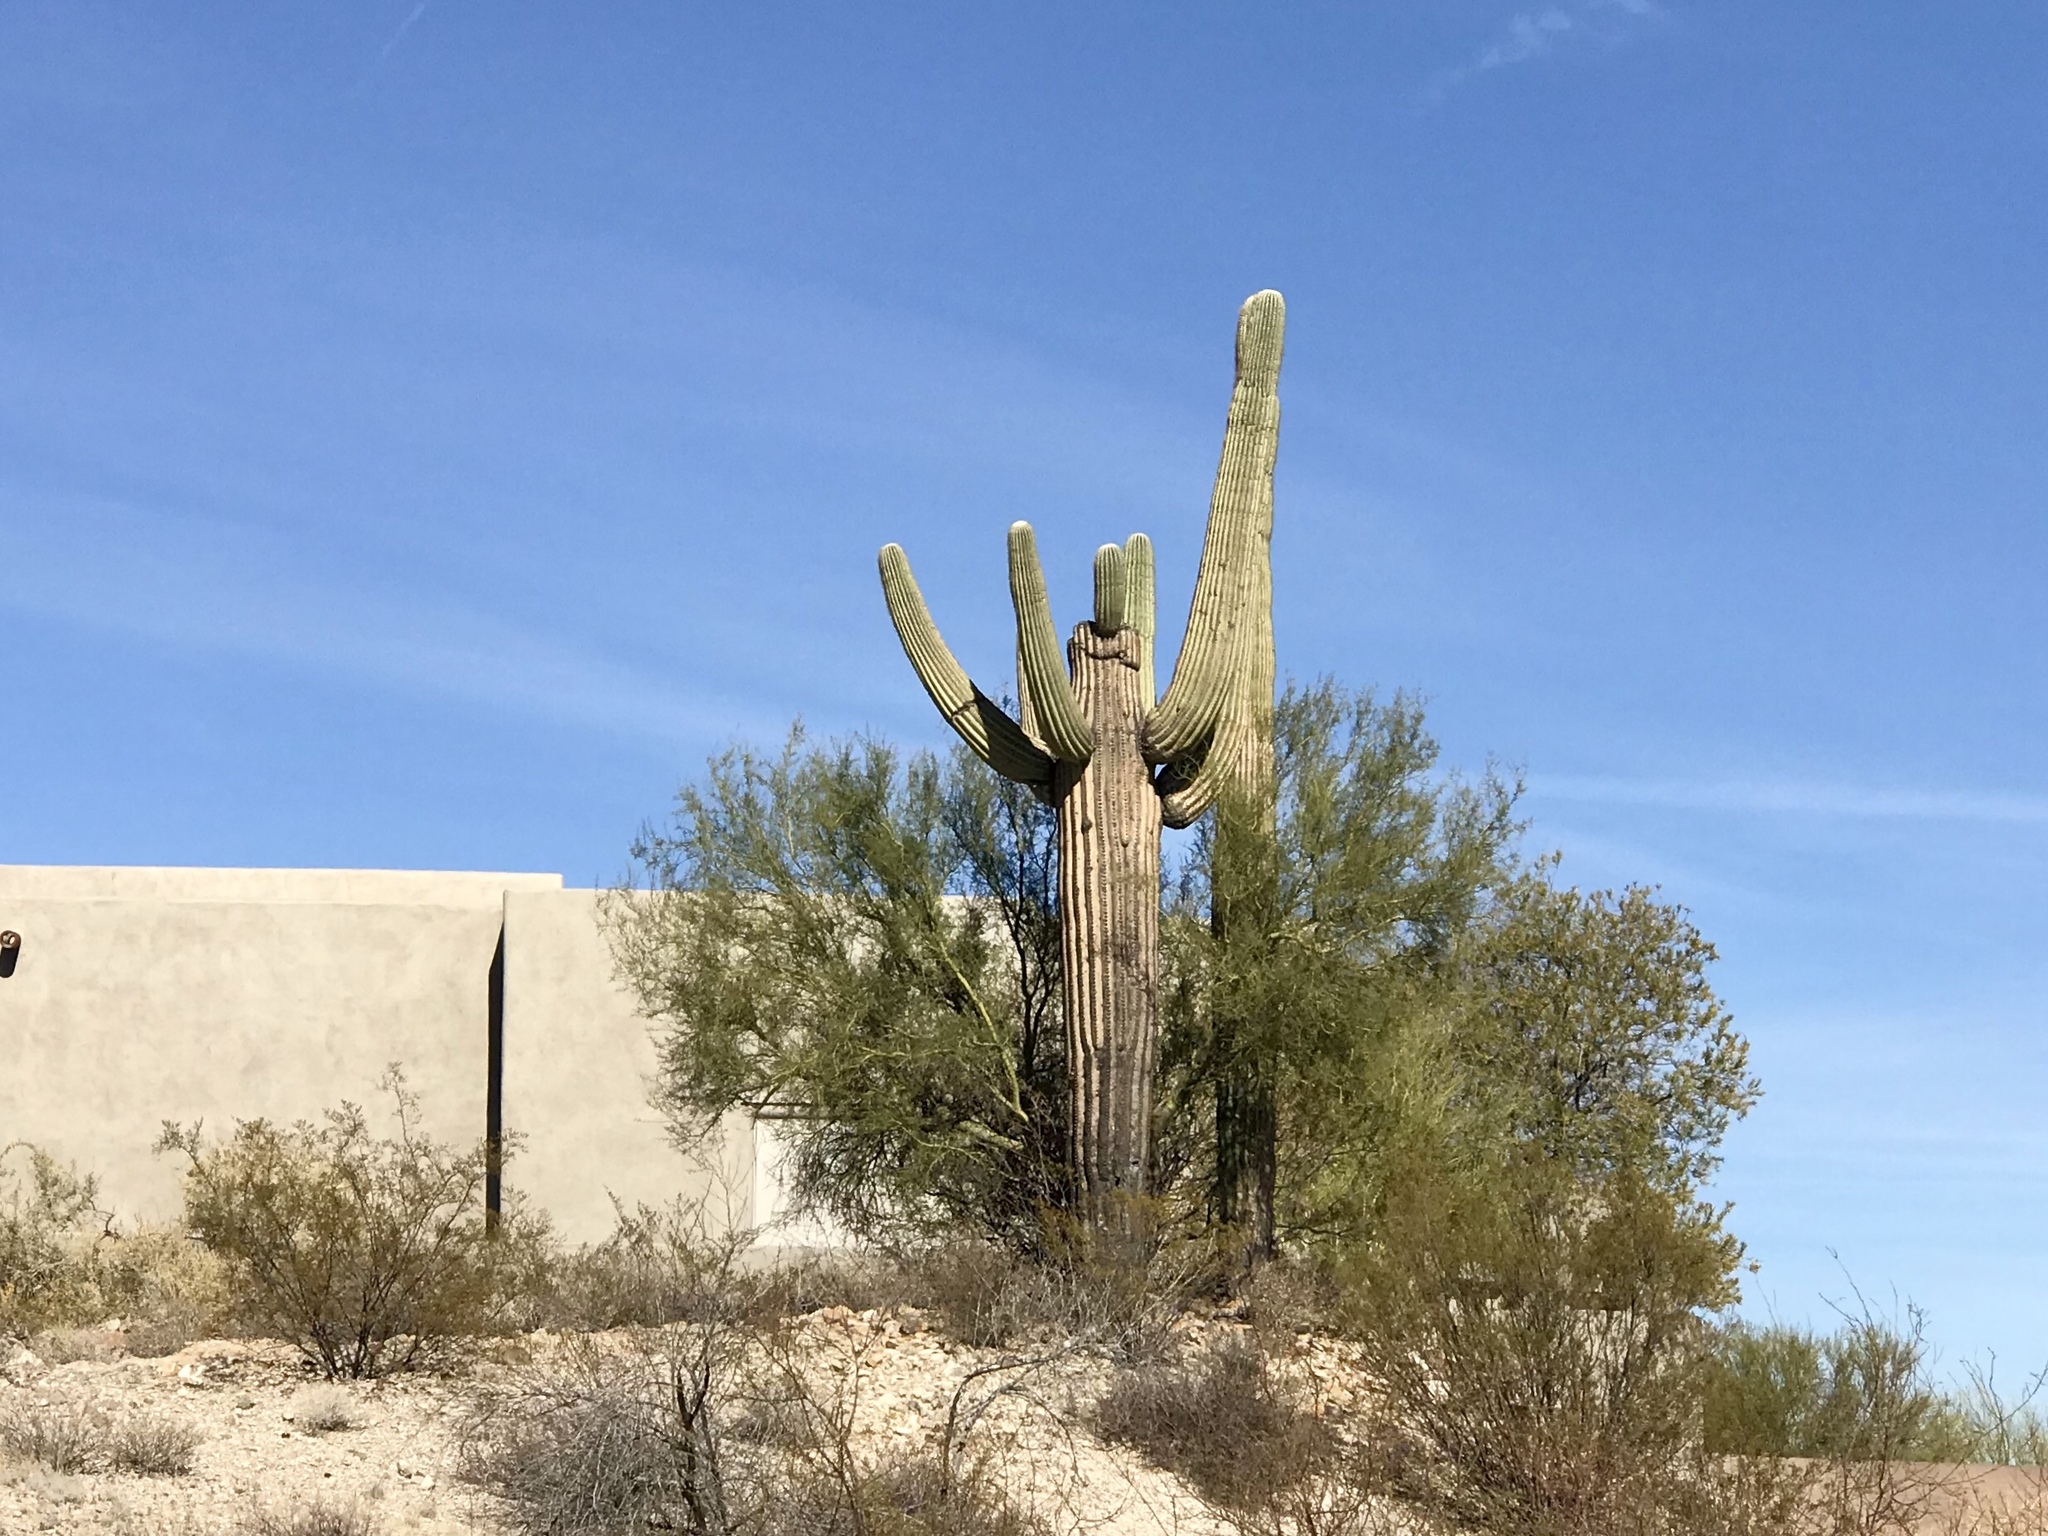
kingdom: Plantae
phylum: Tracheophyta
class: Magnoliopsida
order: Caryophyllales
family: Cactaceae
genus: Carnegiea
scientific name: Carnegiea gigantea
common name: Saguaro
